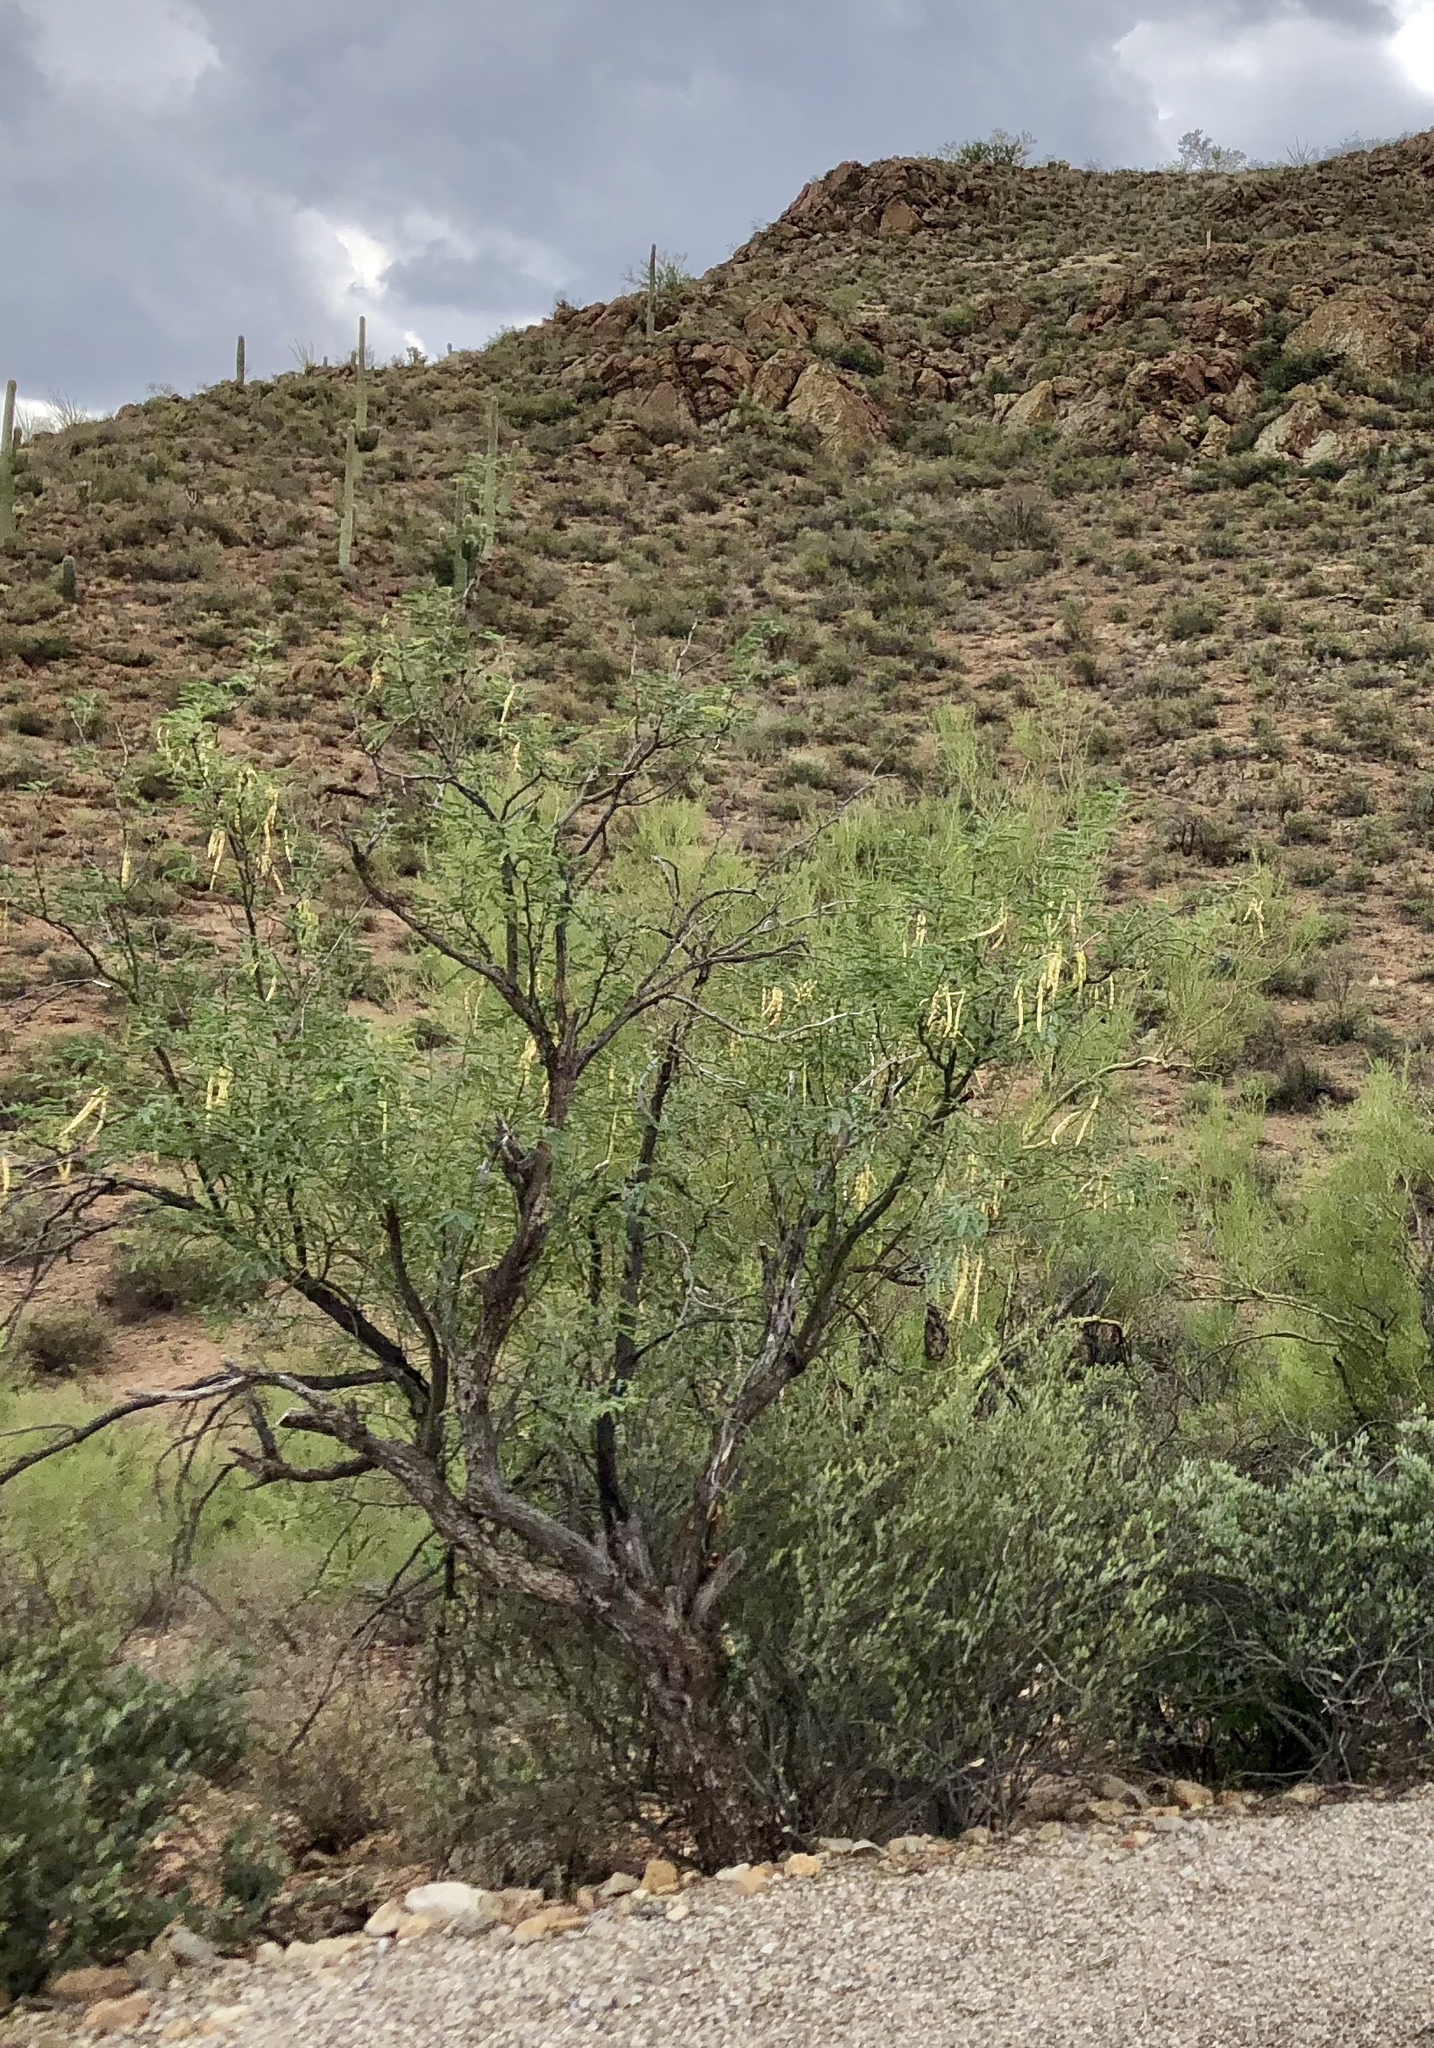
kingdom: Plantae
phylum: Tracheophyta
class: Magnoliopsida
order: Fabales
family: Fabaceae
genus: Prosopis
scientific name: Prosopis velutina
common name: Velvet mesquite
